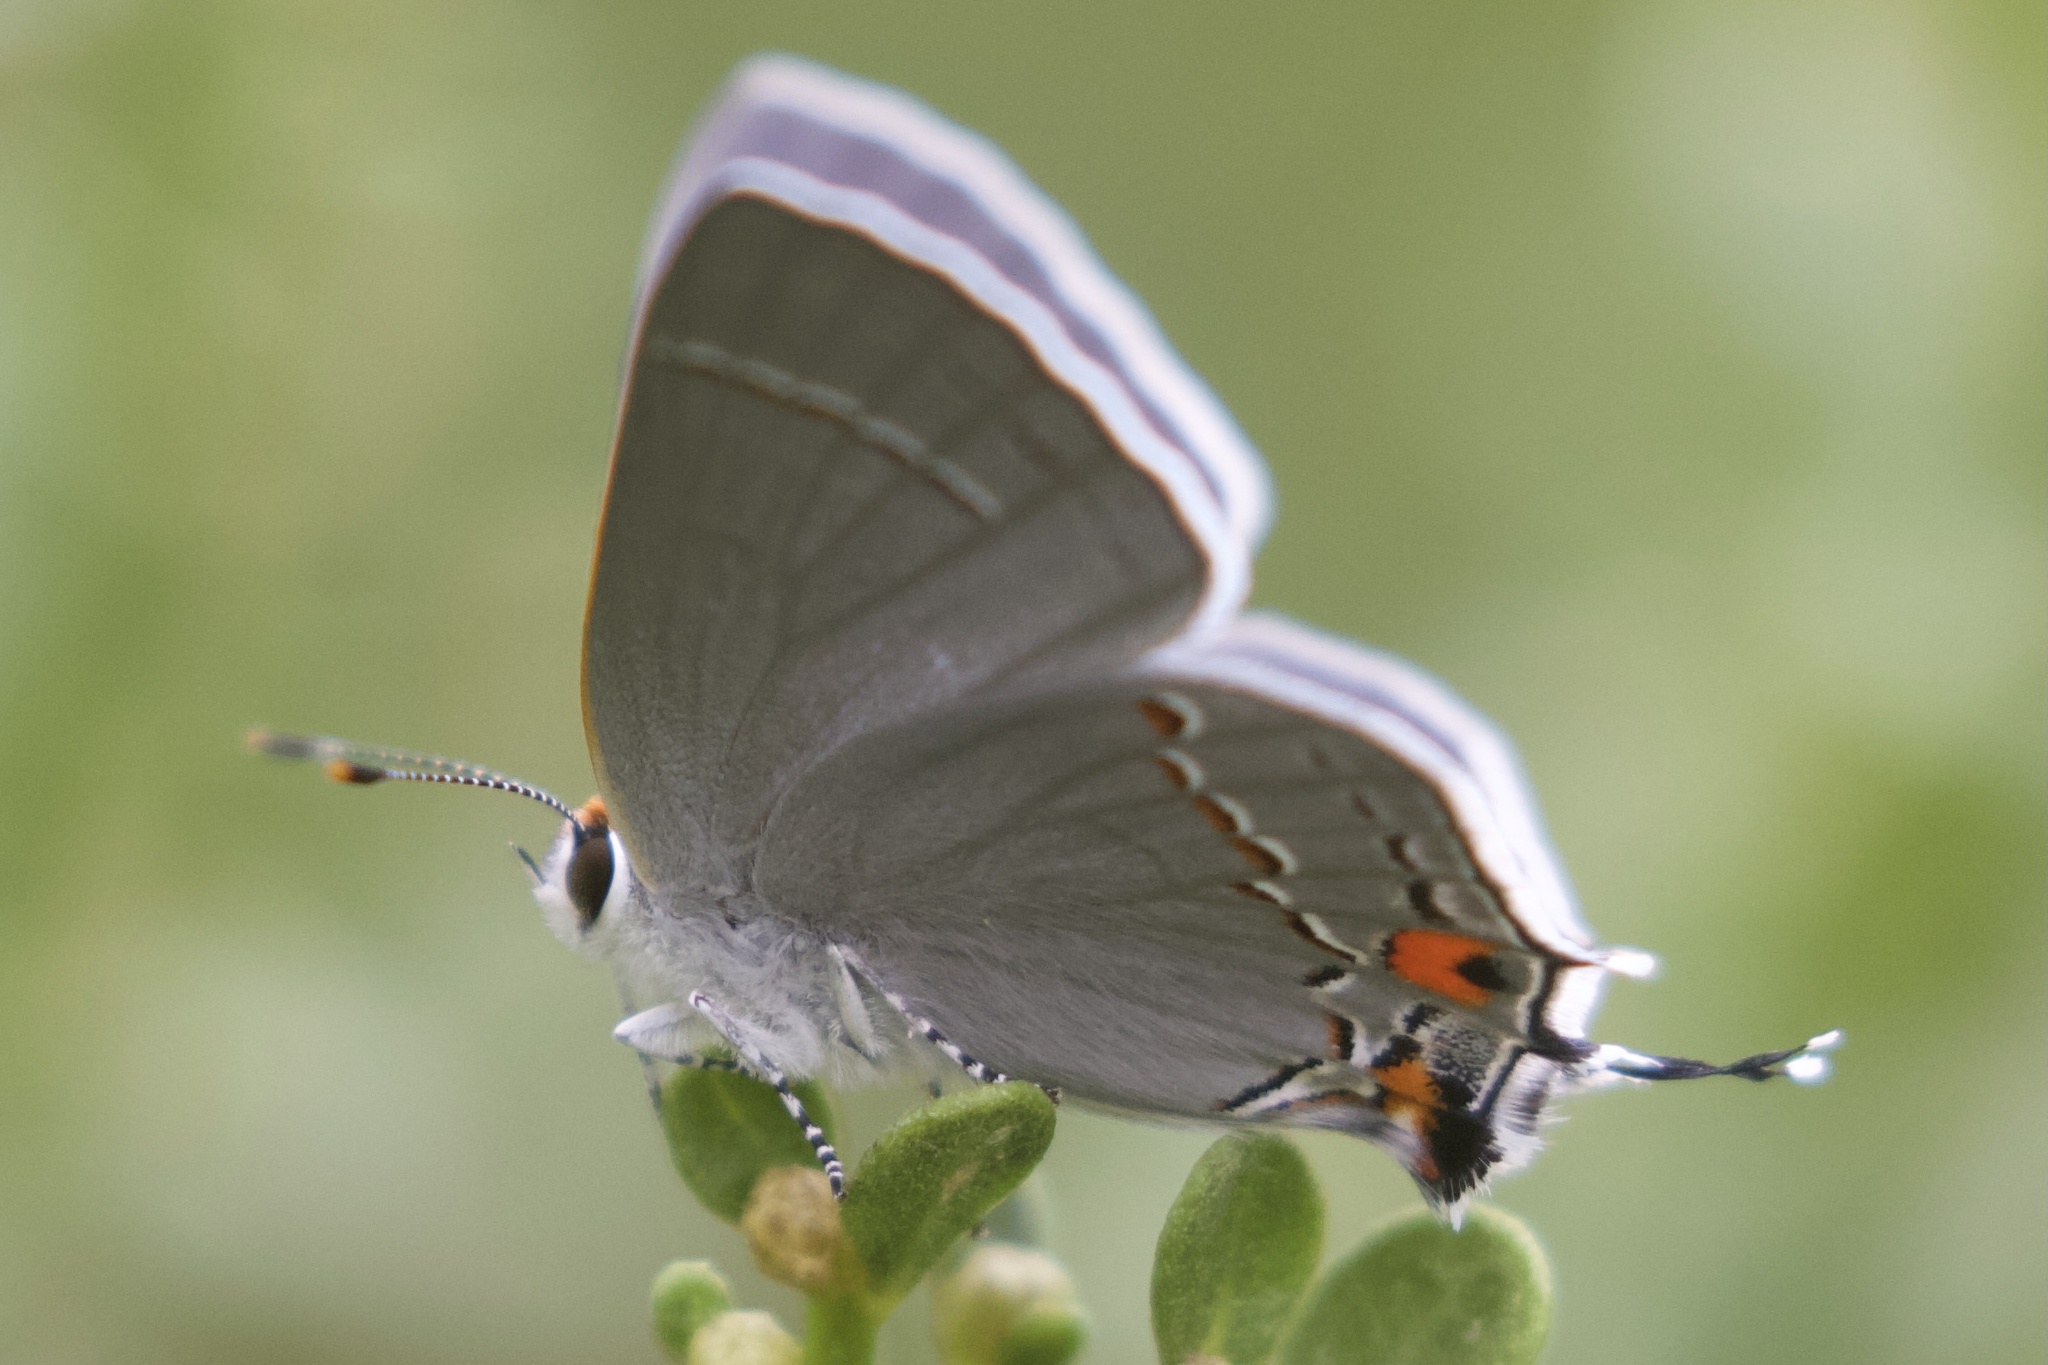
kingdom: Animalia
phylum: Arthropoda
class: Insecta
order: Lepidoptera
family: Lycaenidae
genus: Strymon
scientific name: Strymon melinus
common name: Gray hairstreak
